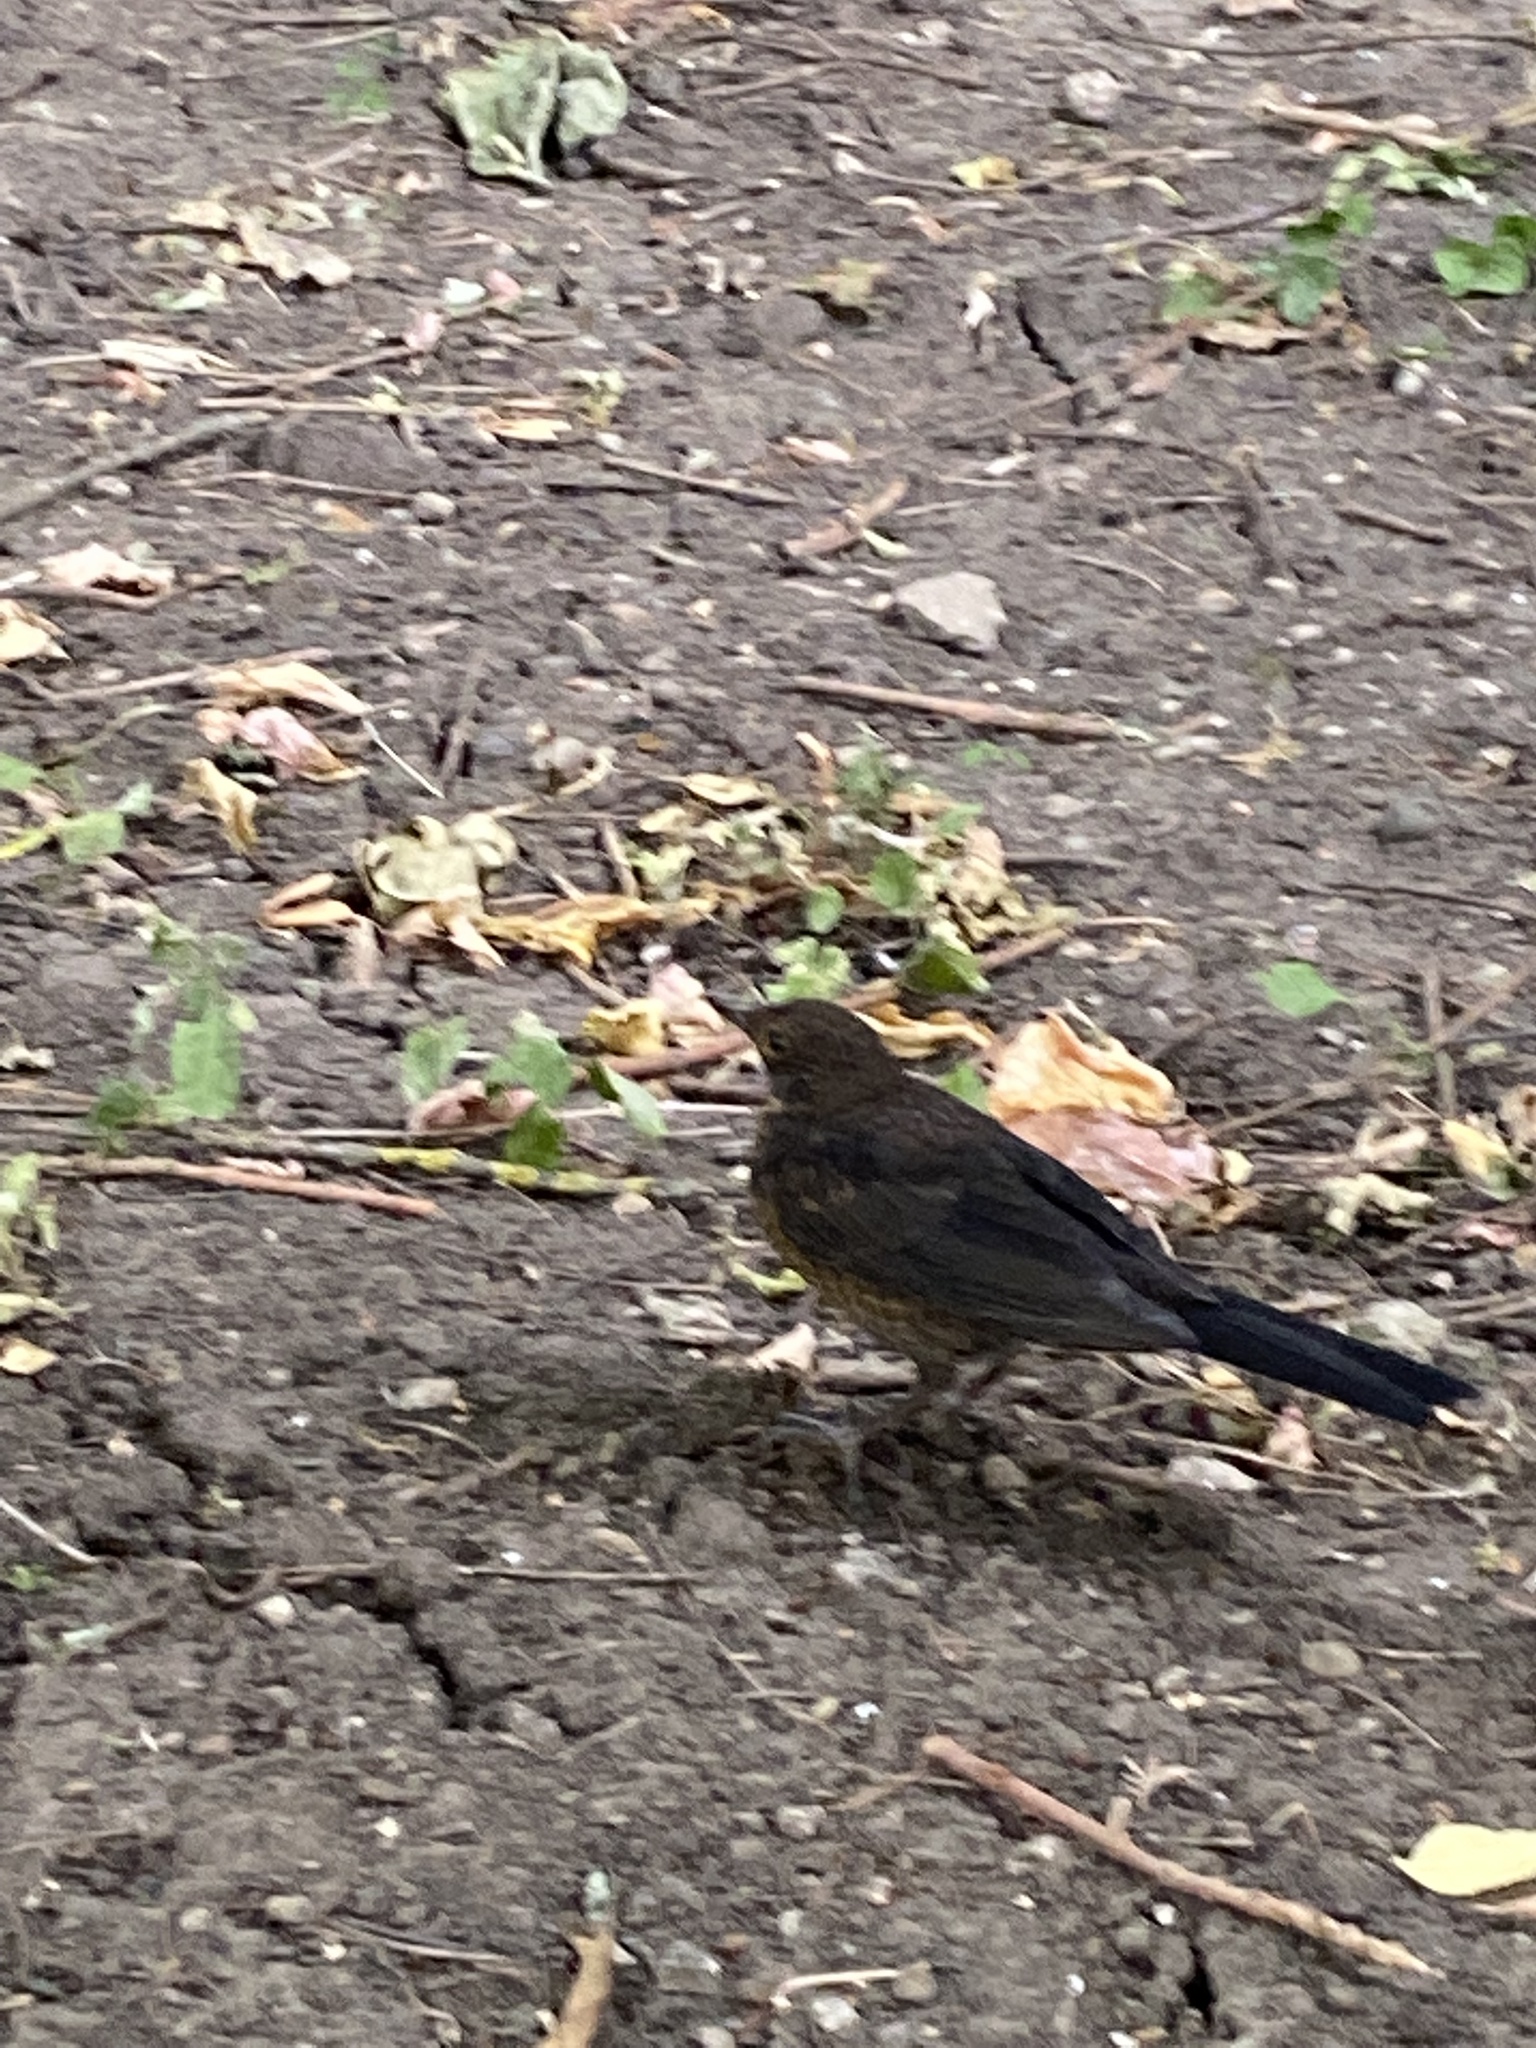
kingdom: Animalia
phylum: Chordata
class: Aves
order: Passeriformes
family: Turdidae
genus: Turdus
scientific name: Turdus merula
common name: Common blackbird
